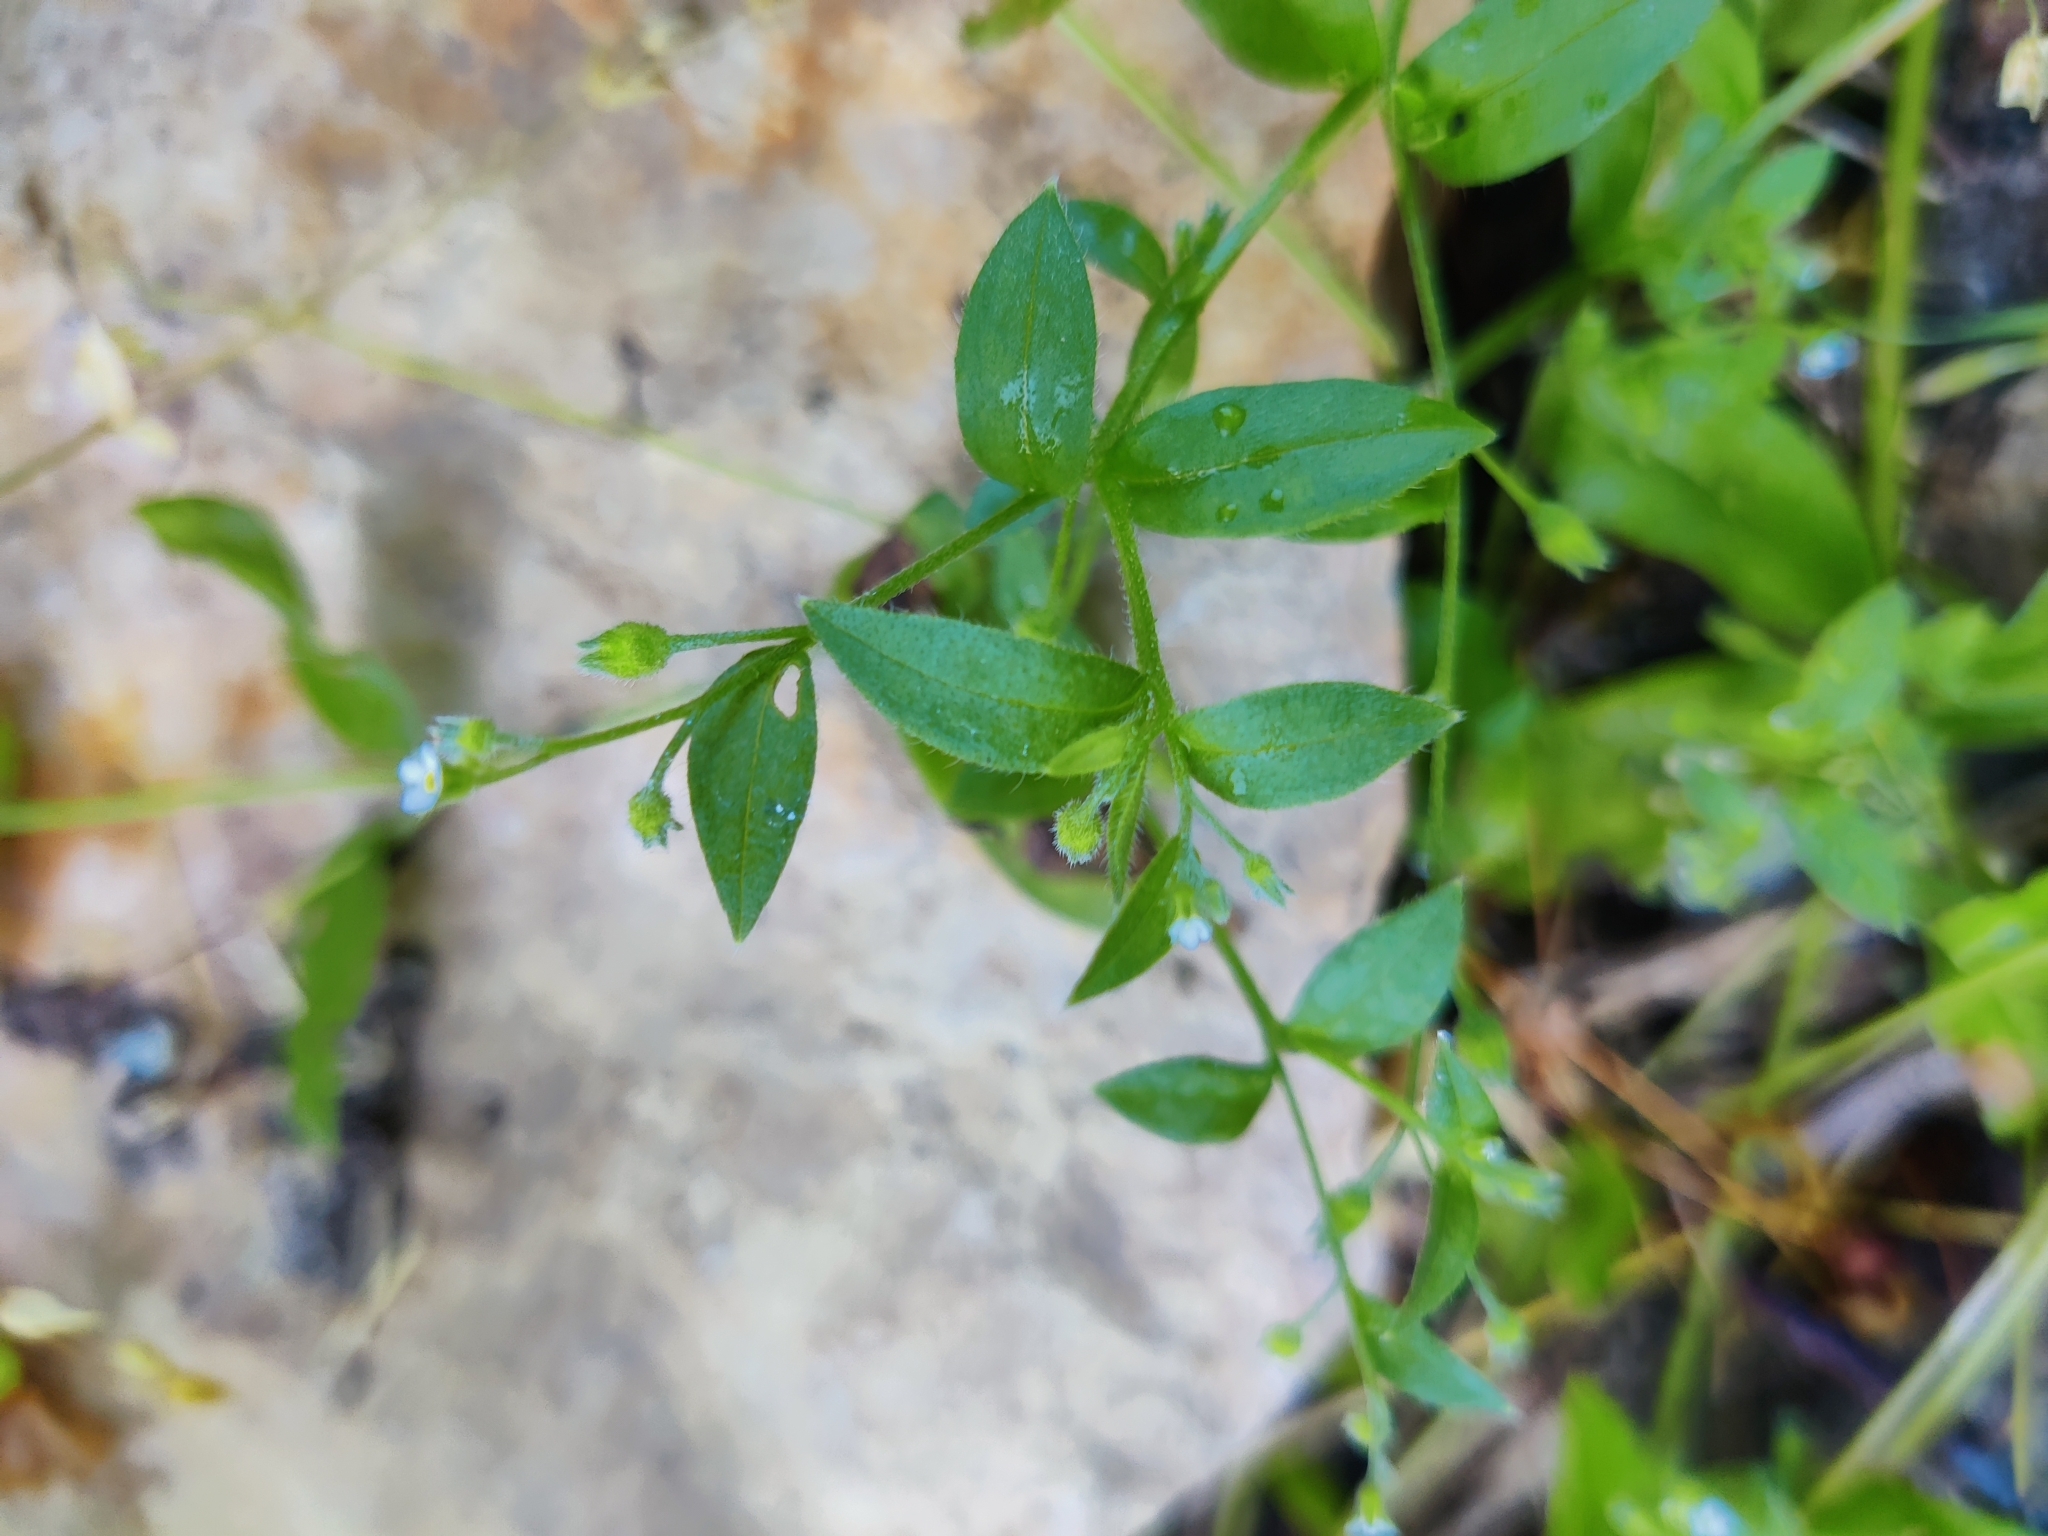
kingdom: Plantae
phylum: Tracheophyta
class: Magnoliopsida
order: Boraginales
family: Boraginaceae
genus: Myosotis
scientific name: Myosotis sparsiflora
